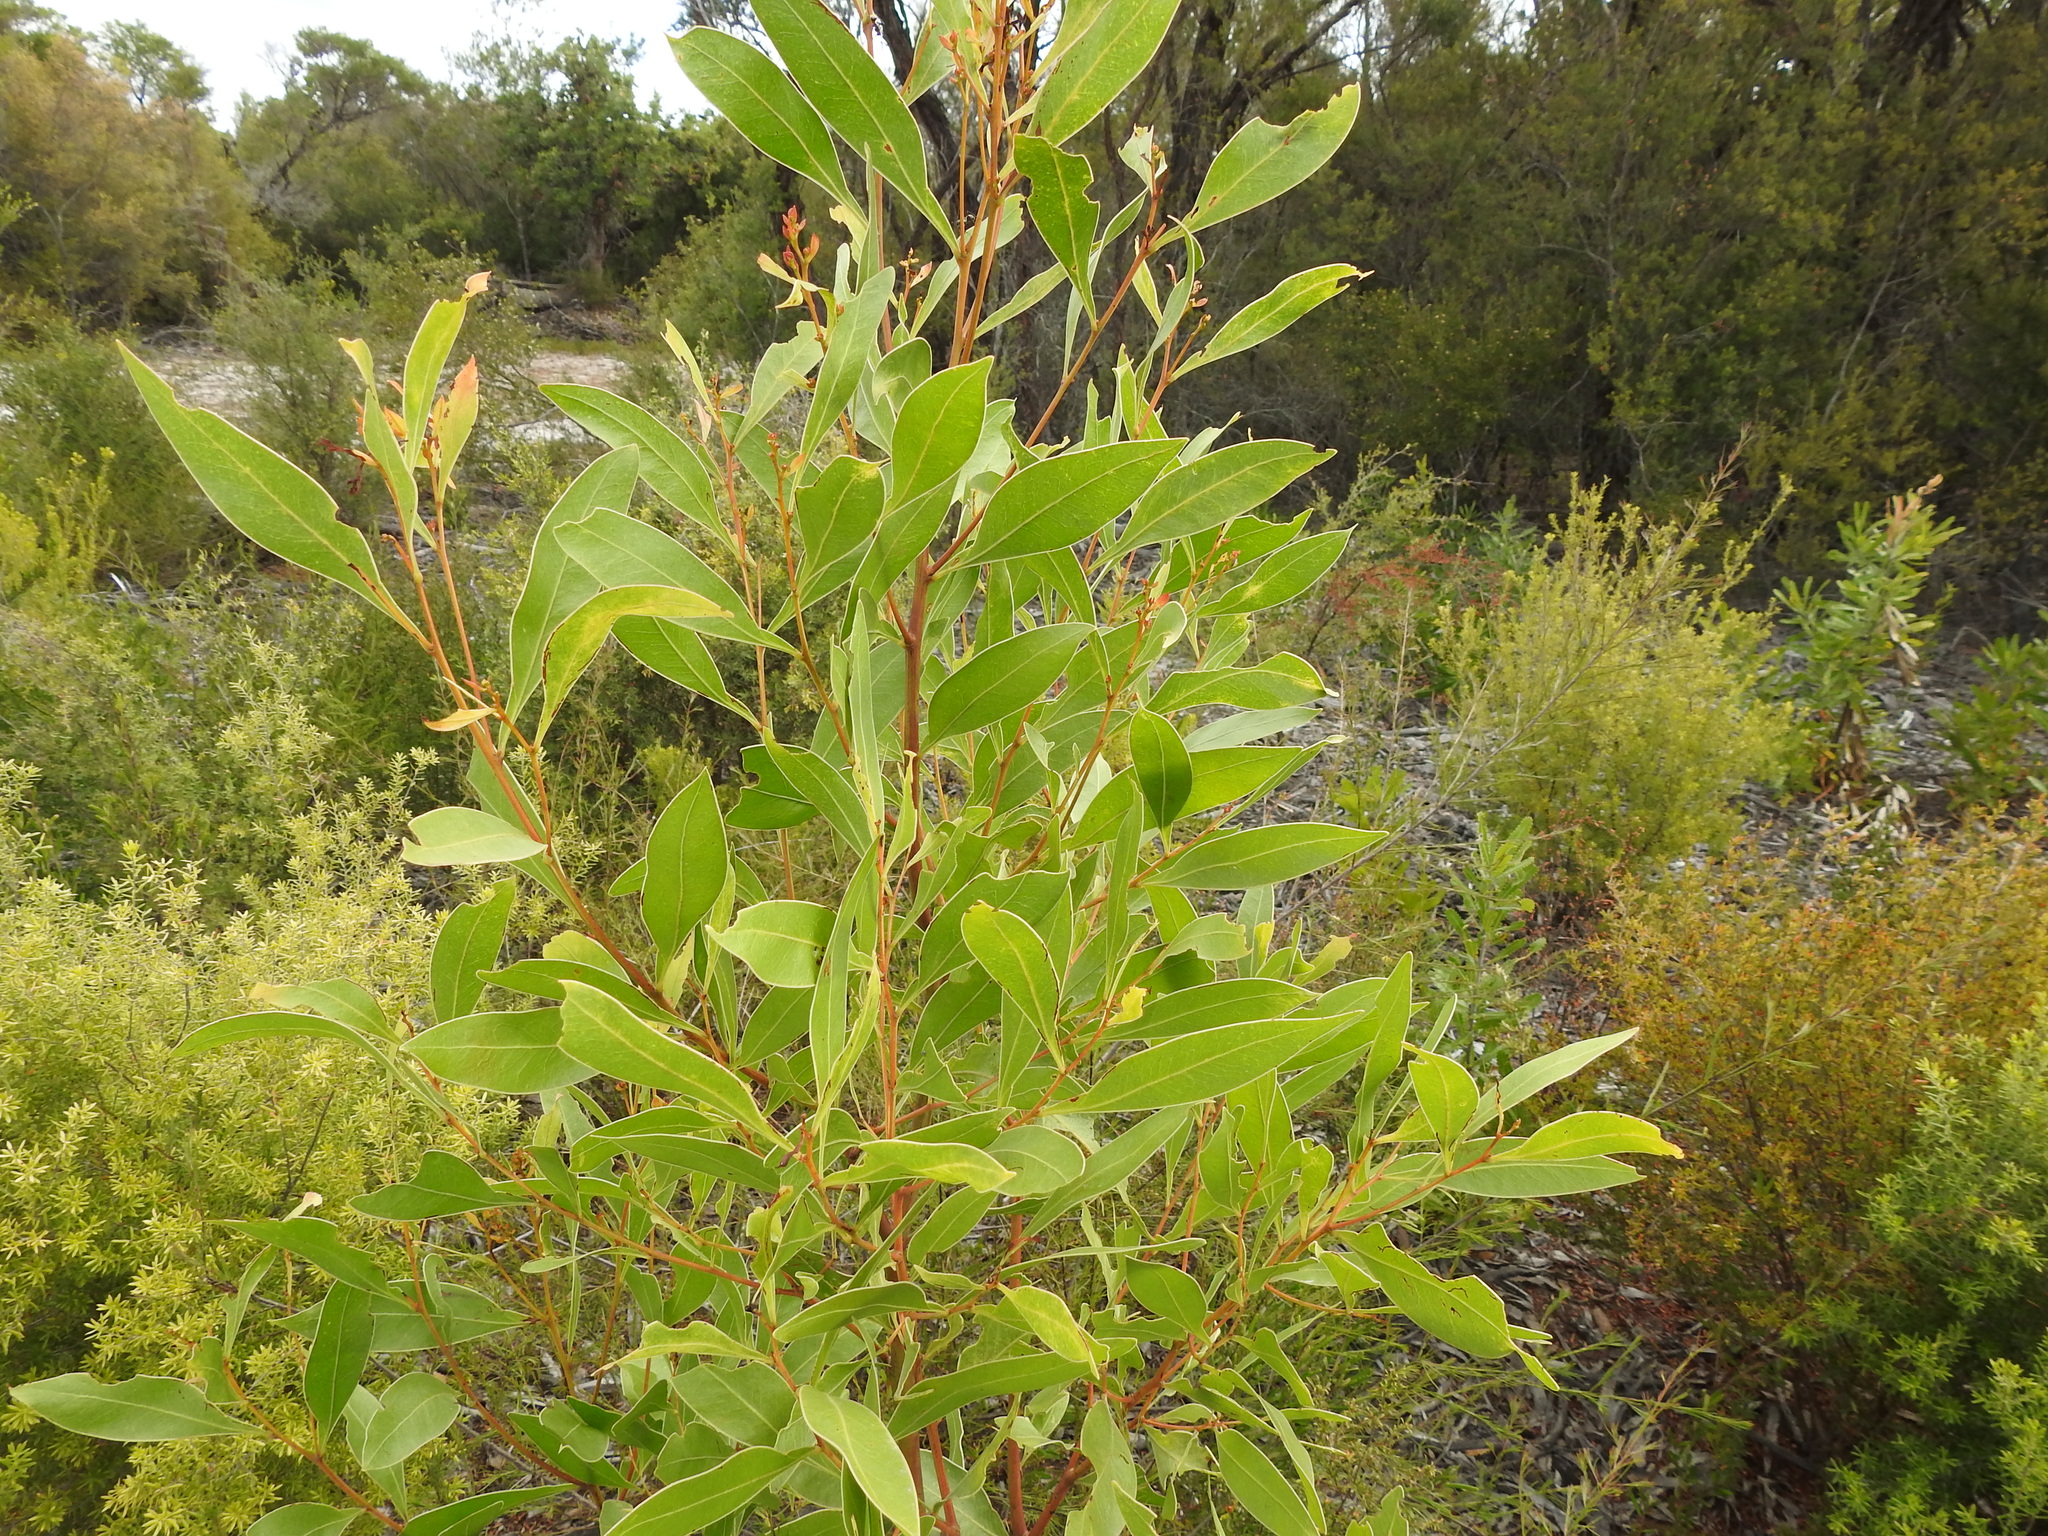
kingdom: Plantae
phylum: Tracheophyta
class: Magnoliopsida
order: Fabales
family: Fabaceae
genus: Acacia
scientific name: Acacia penninervis
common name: Hickory wattle
